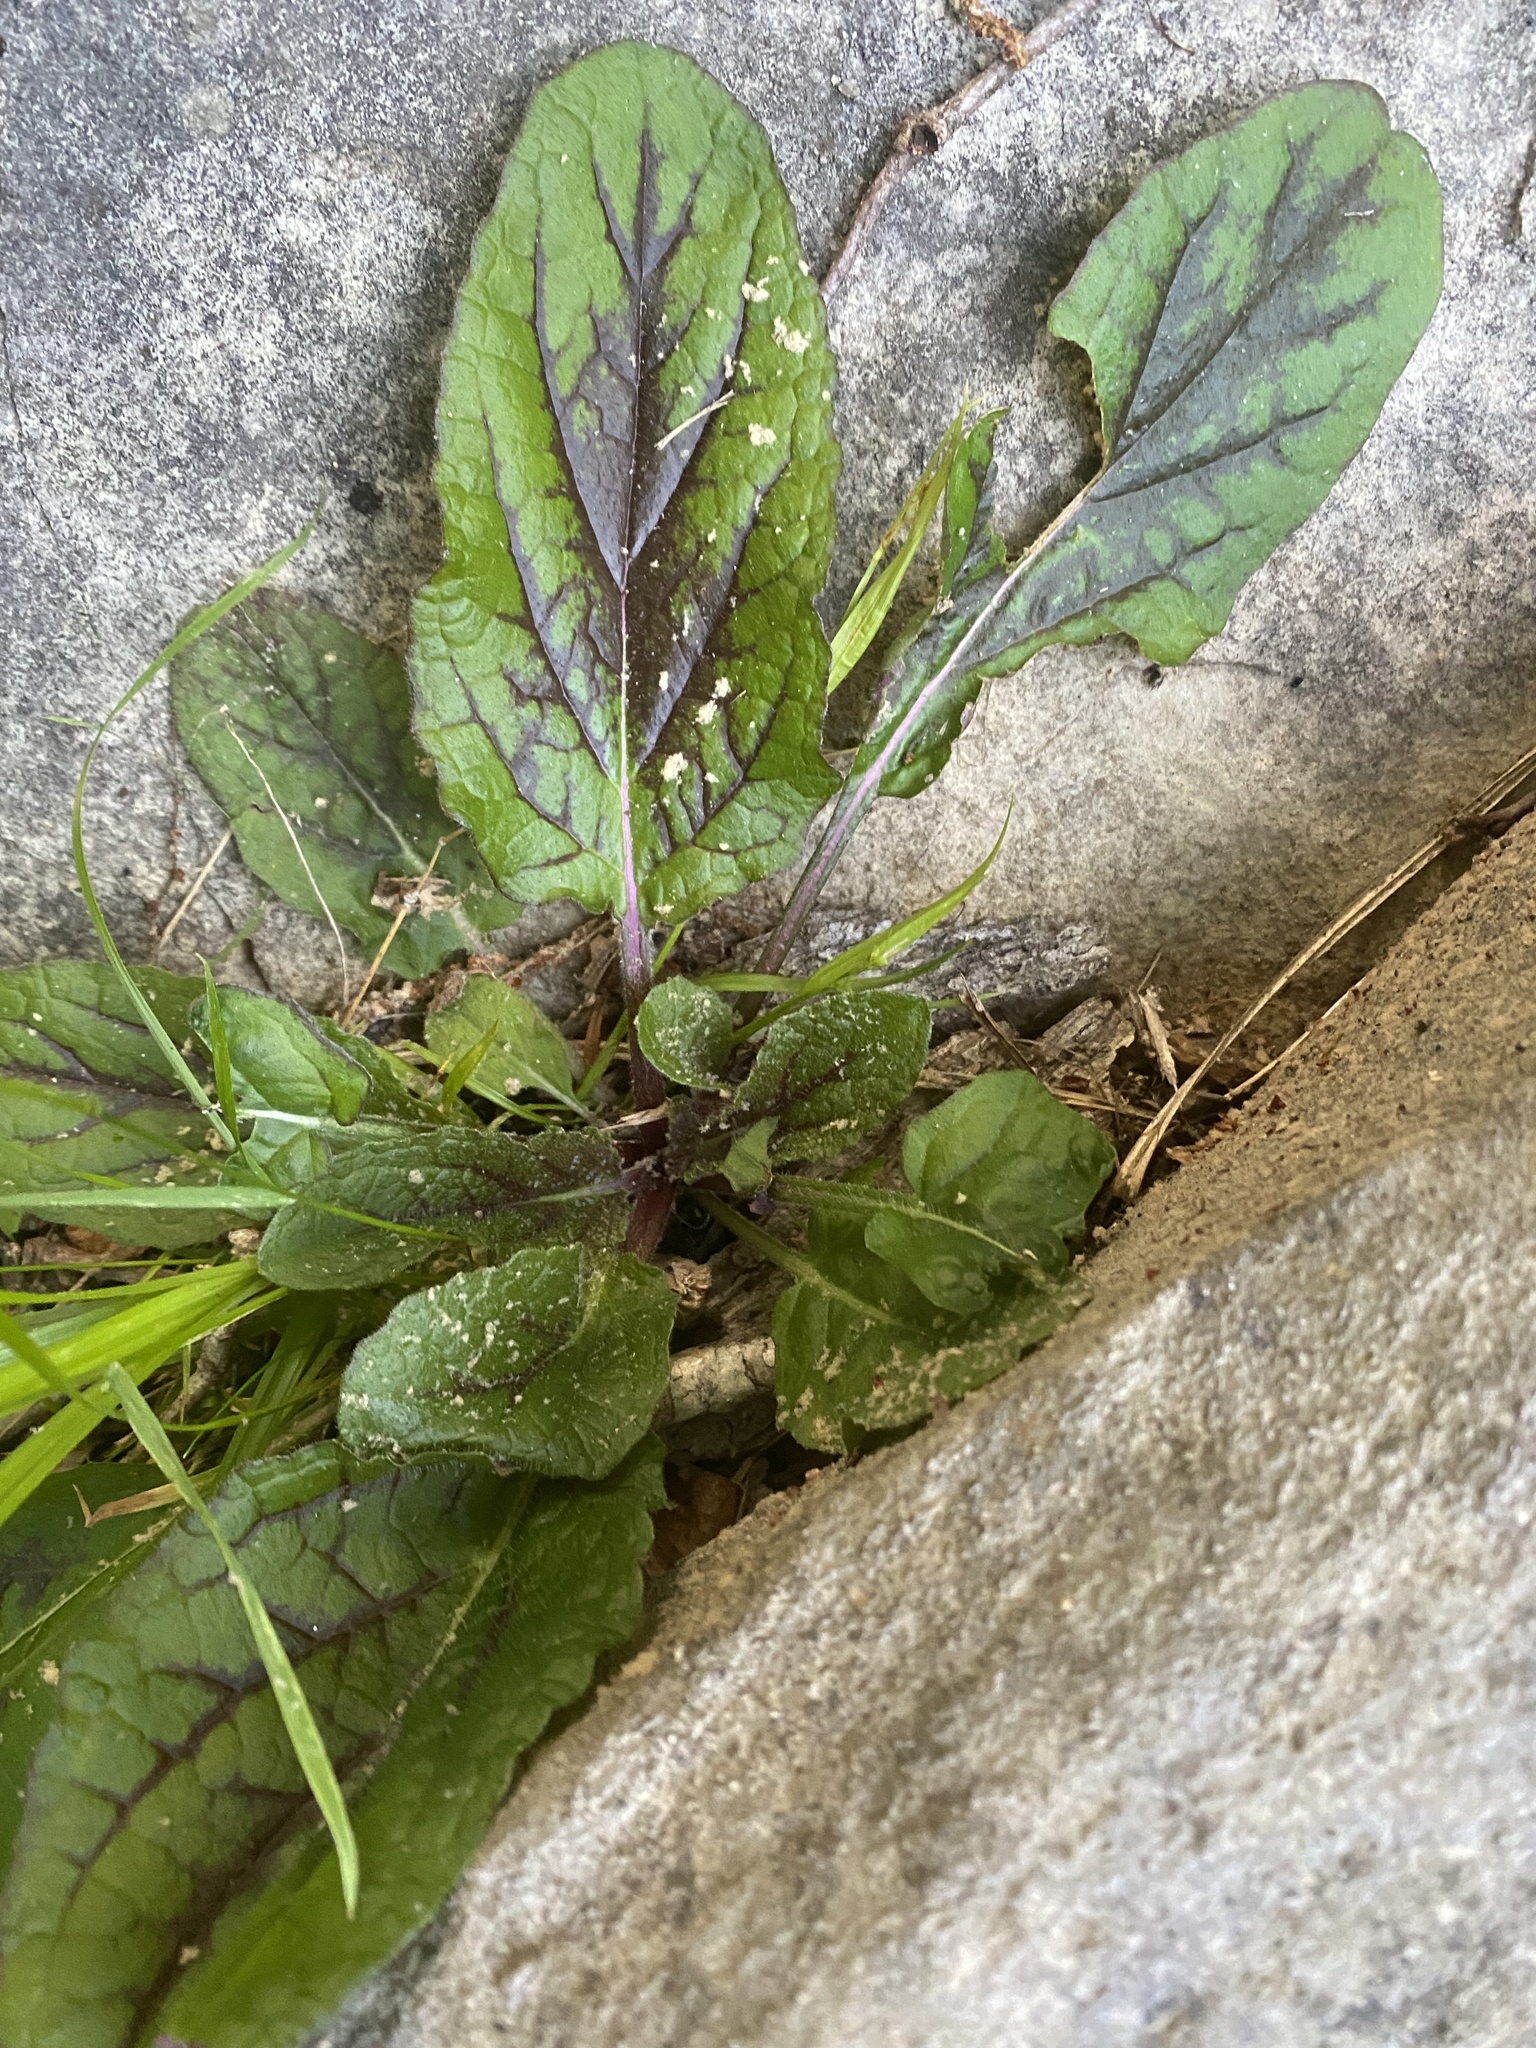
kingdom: Plantae
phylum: Tracheophyta
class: Magnoliopsida
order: Lamiales
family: Lamiaceae
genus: Salvia
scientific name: Salvia lyrata
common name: Cancerweed
